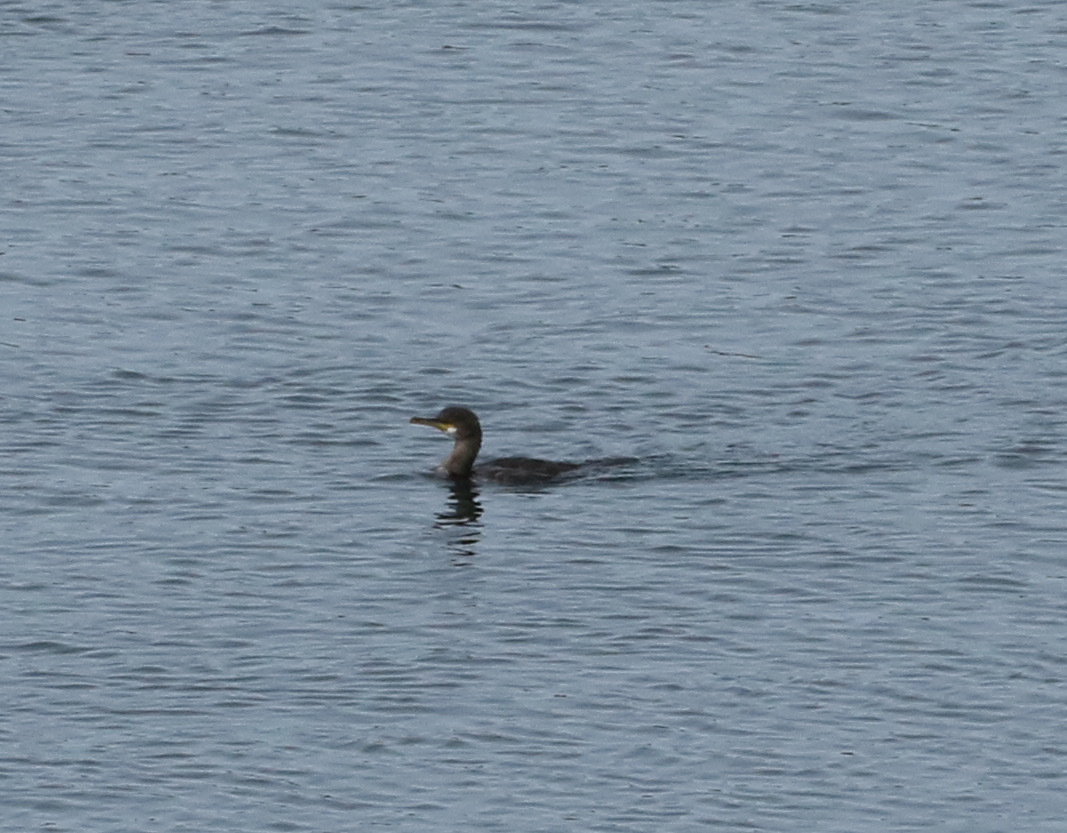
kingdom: Animalia
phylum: Chordata
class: Aves
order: Suliformes
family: Phalacrocoracidae
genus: Phalacrocorax
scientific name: Phalacrocorax aristotelis
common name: European shag
